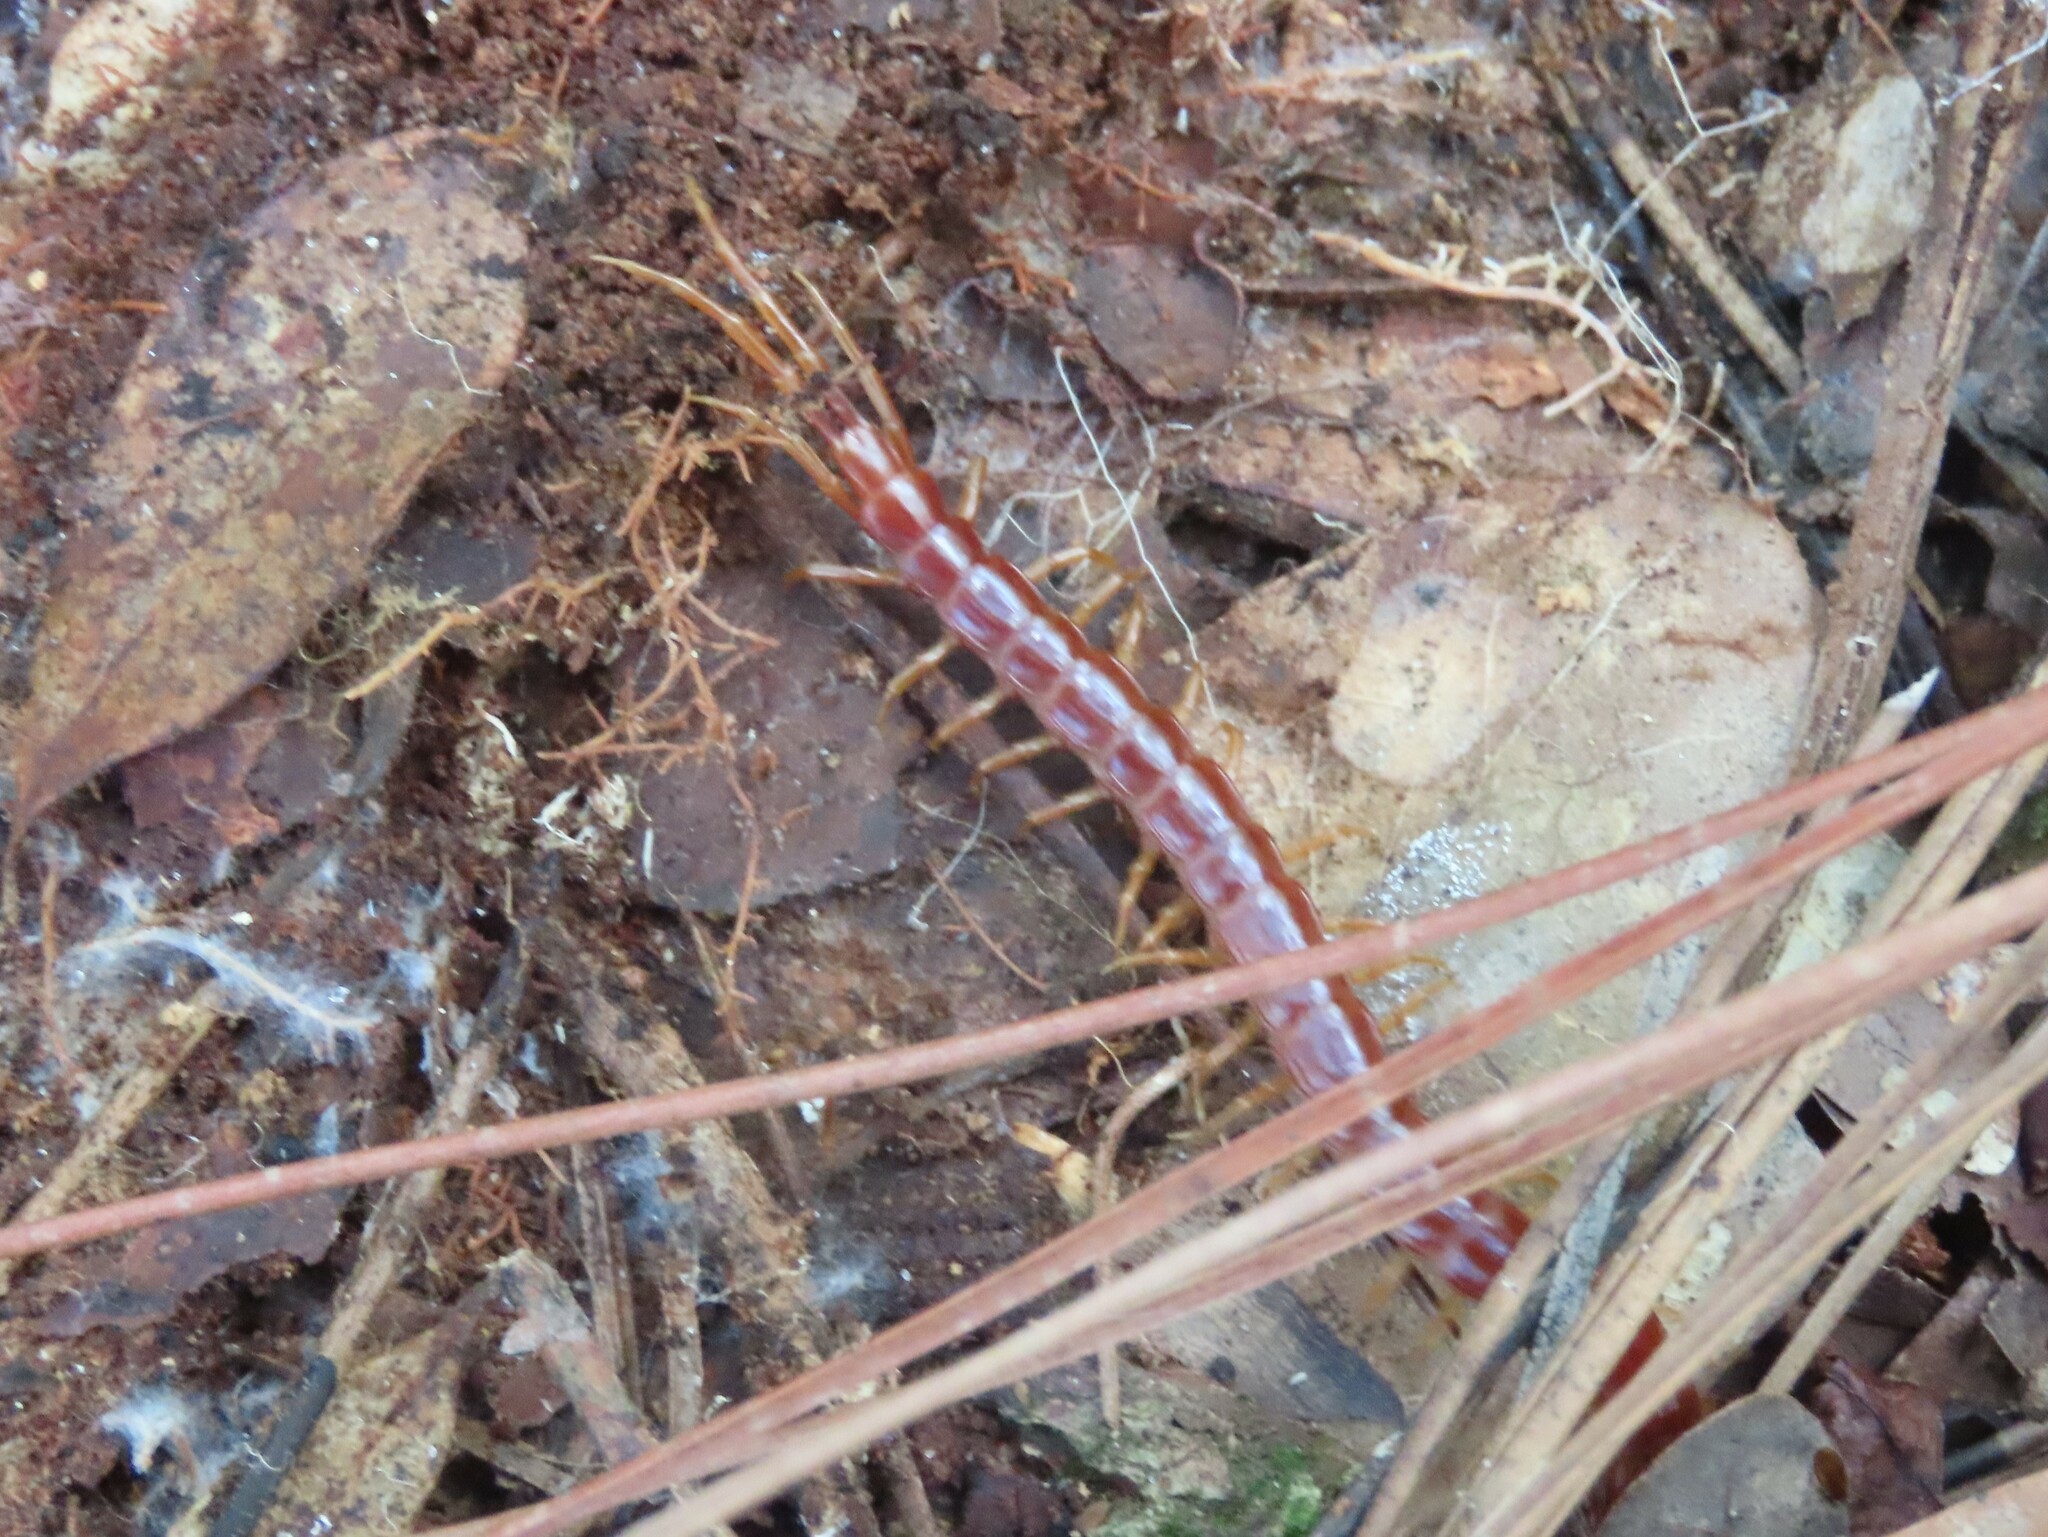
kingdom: Animalia
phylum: Arthropoda
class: Chilopoda
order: Scolopendromorpha
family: Scolopocryptopidae
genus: Scolopocryptops
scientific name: Scolopocryptops sexspinosus
